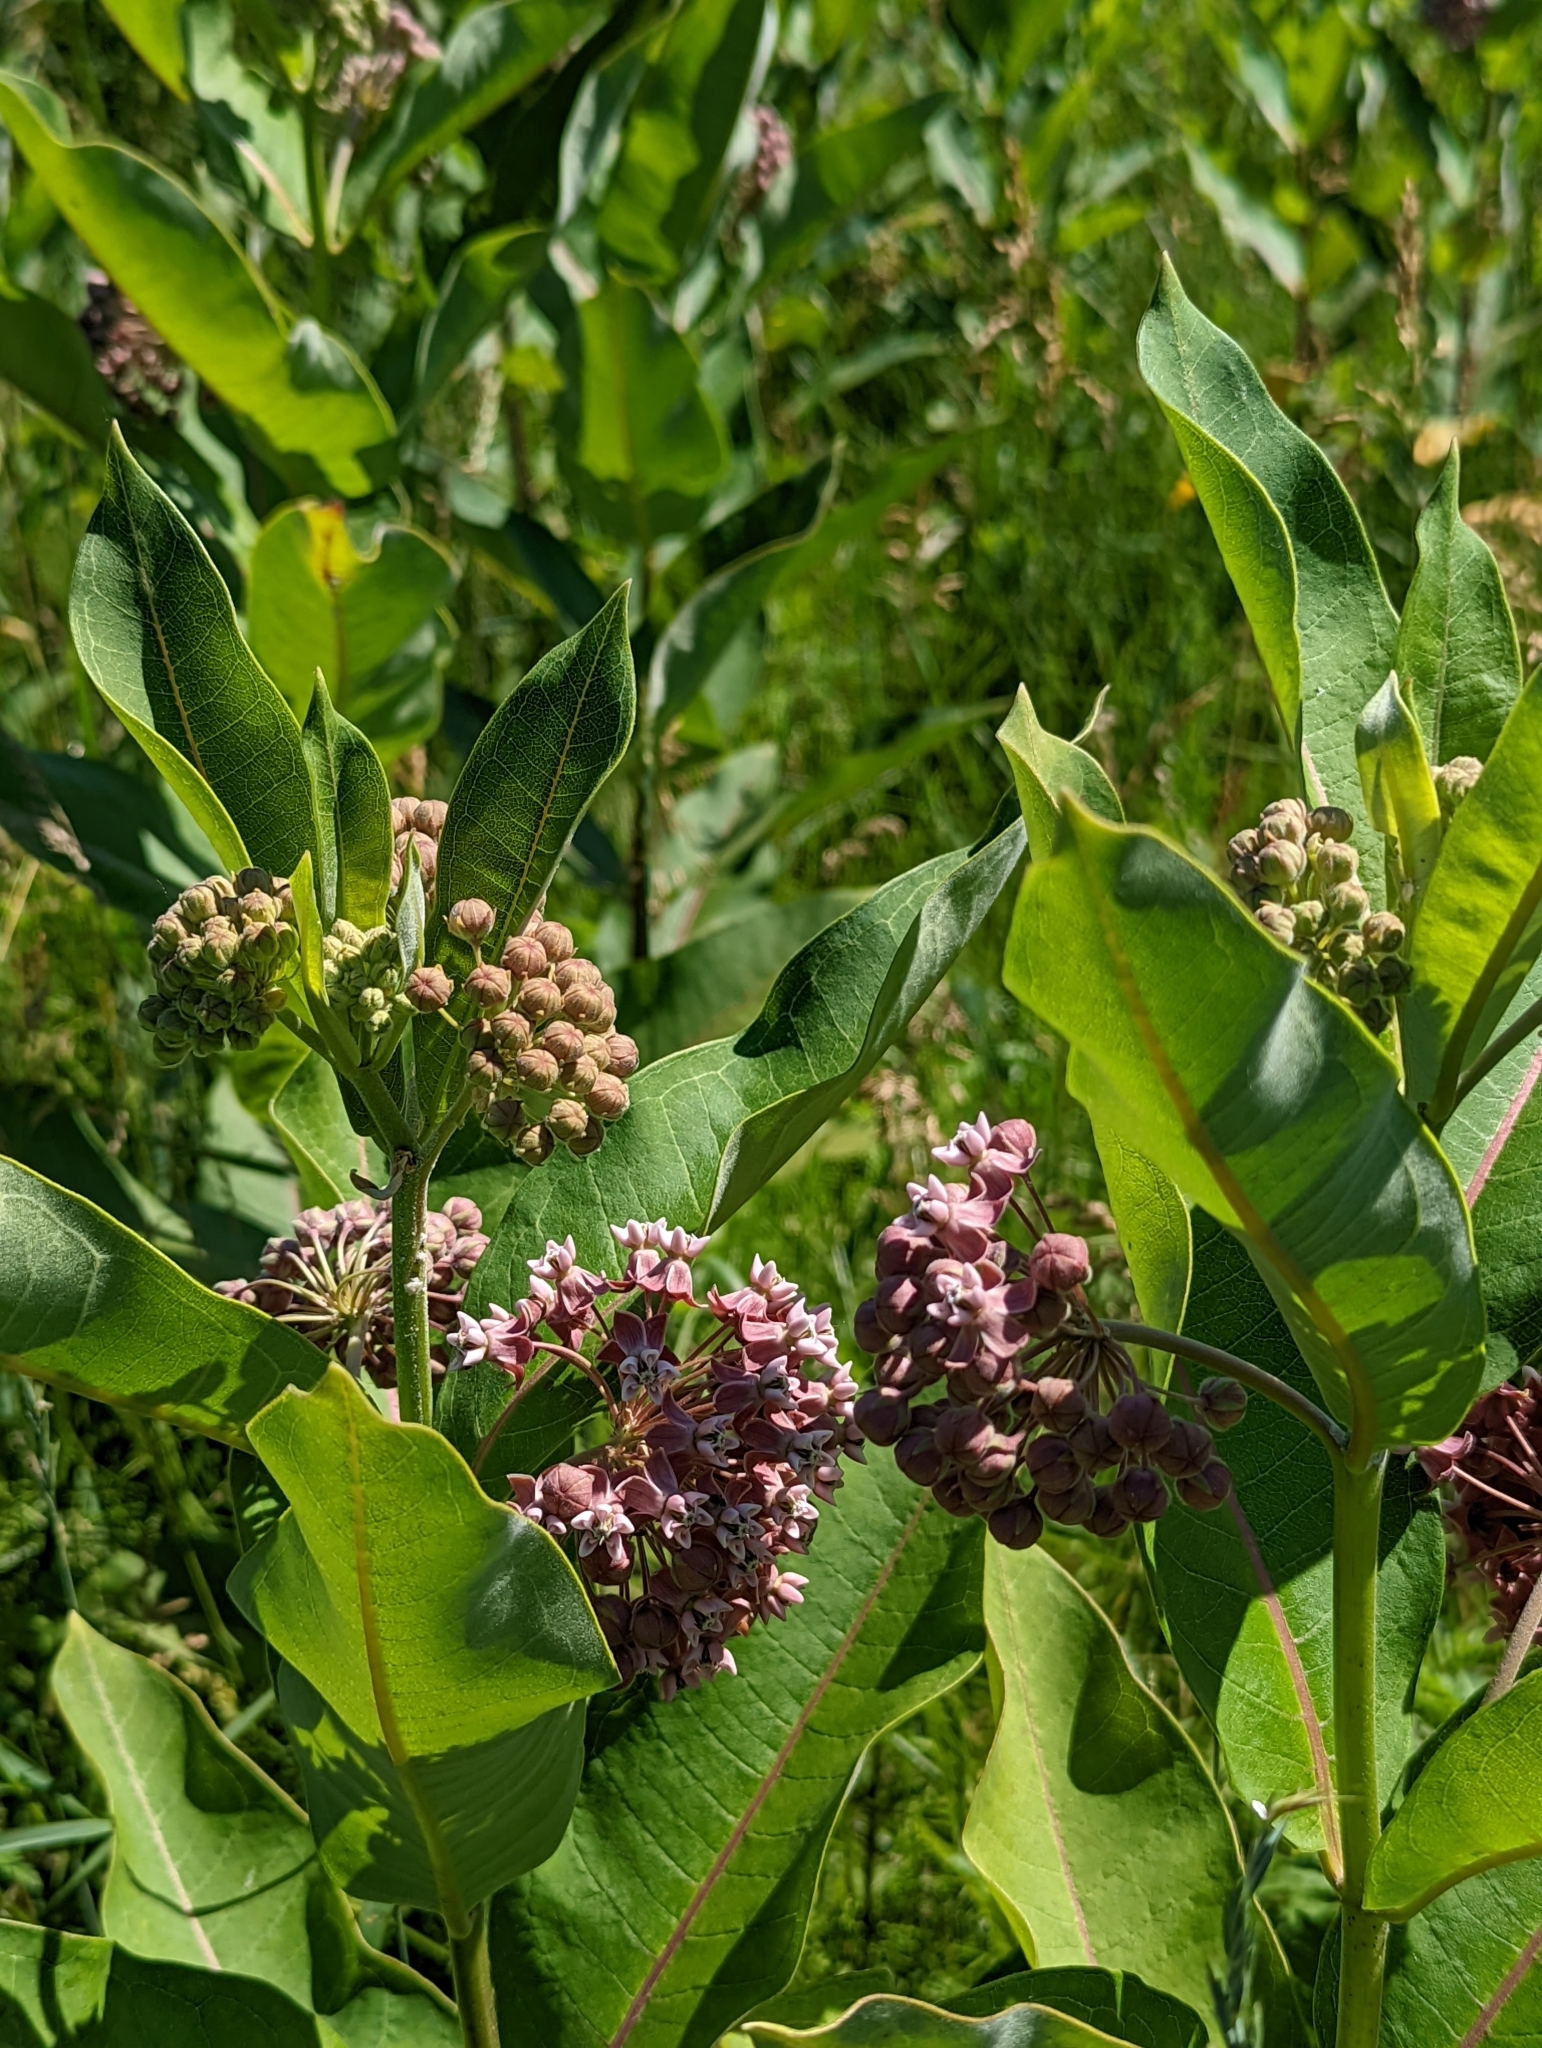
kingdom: Plantae
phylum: Tracheophyta
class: Magnoliopsida
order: Gentianales
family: Apocynaceae
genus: Asclepias
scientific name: Asclepias syriaca
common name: Common milkweed
